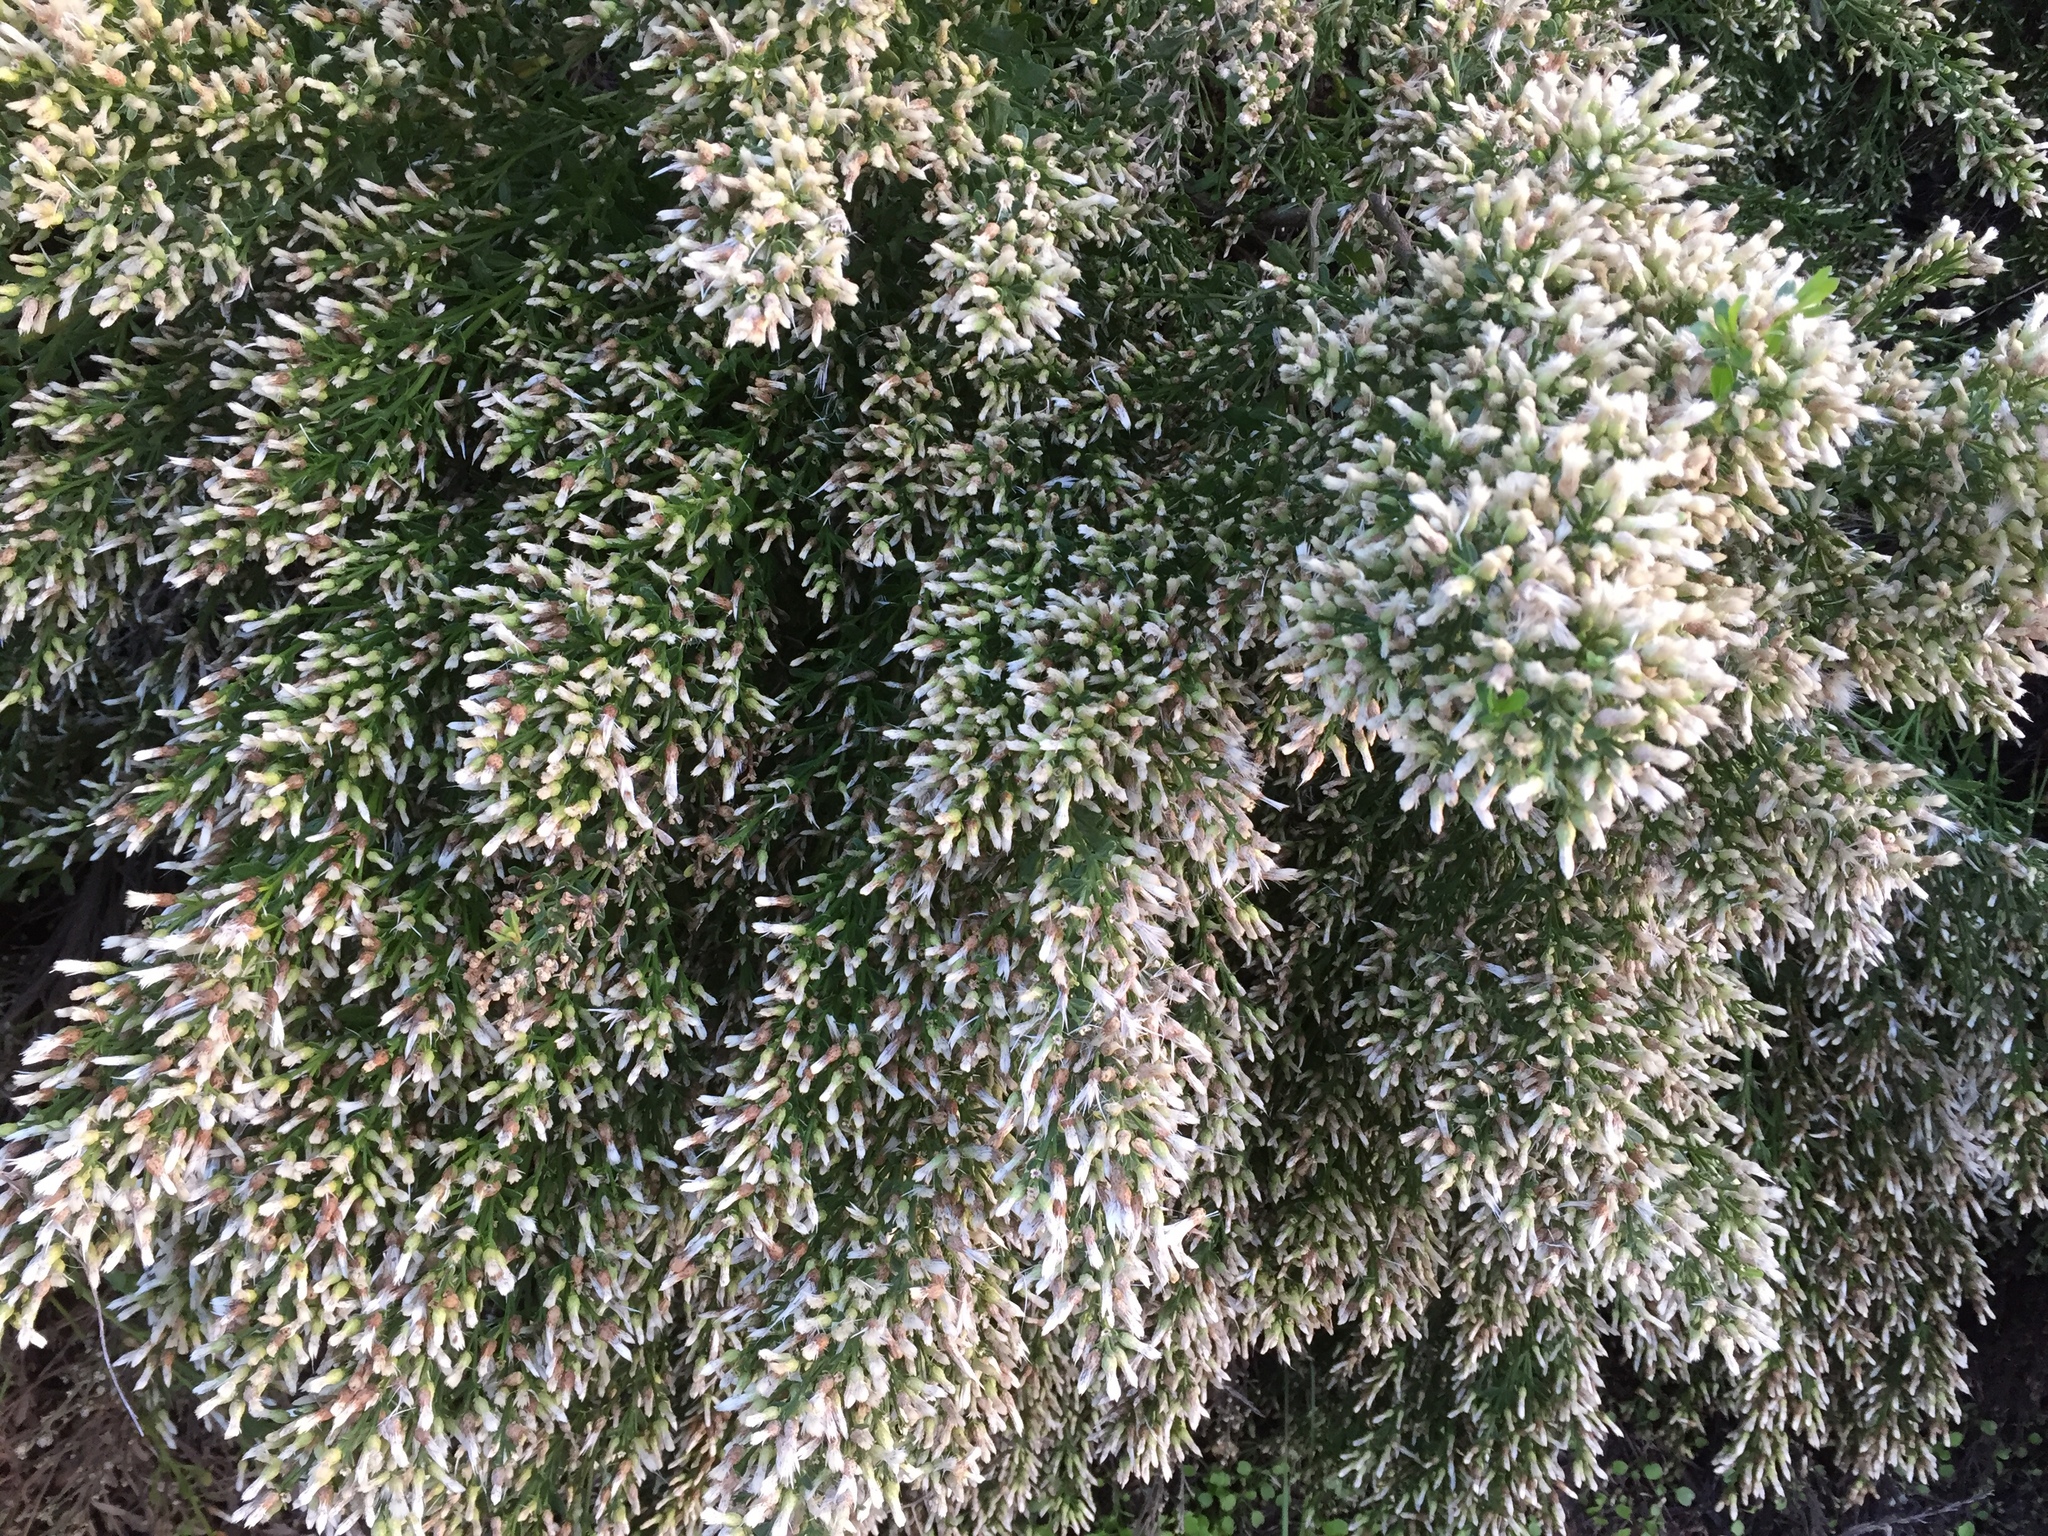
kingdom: Plantae
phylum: Tracheophyta
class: Magnoliopsida
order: Asterales
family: Asteraceae
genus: Baccharis
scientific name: Baccharis pilularis
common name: Coyotebrush
